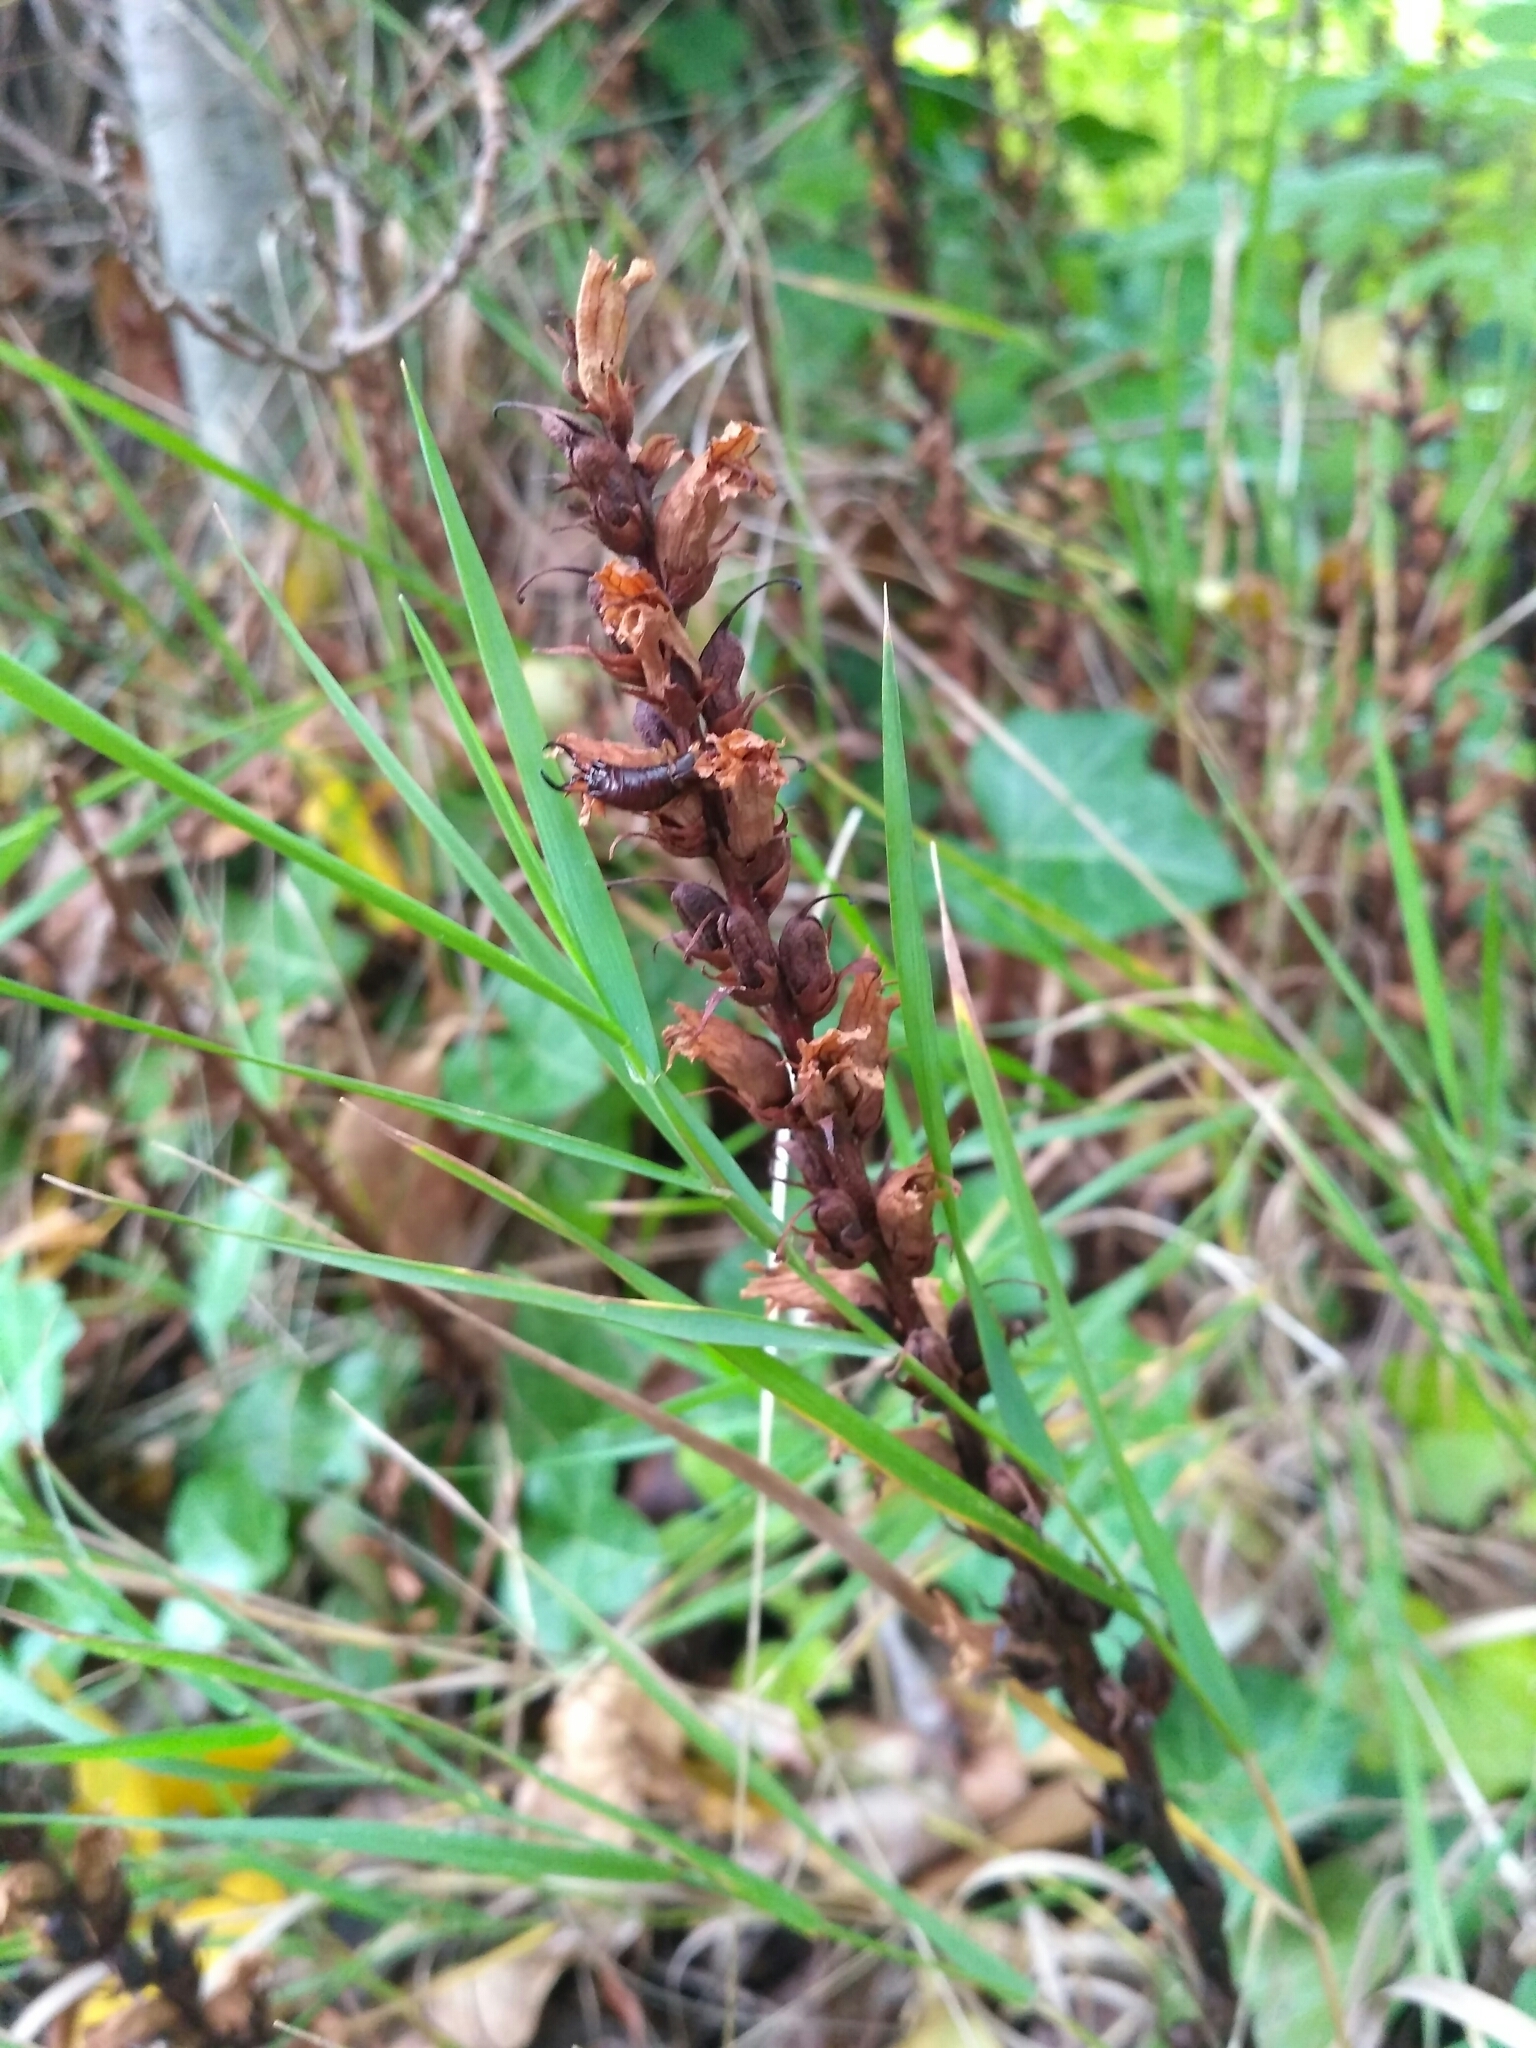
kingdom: Plantae
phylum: Tracheophyta
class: Magnoliopsida
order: Lamiales
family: Orobanchaceae
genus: Orobanche
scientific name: Orobanche hederae
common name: Ivy broomrape
